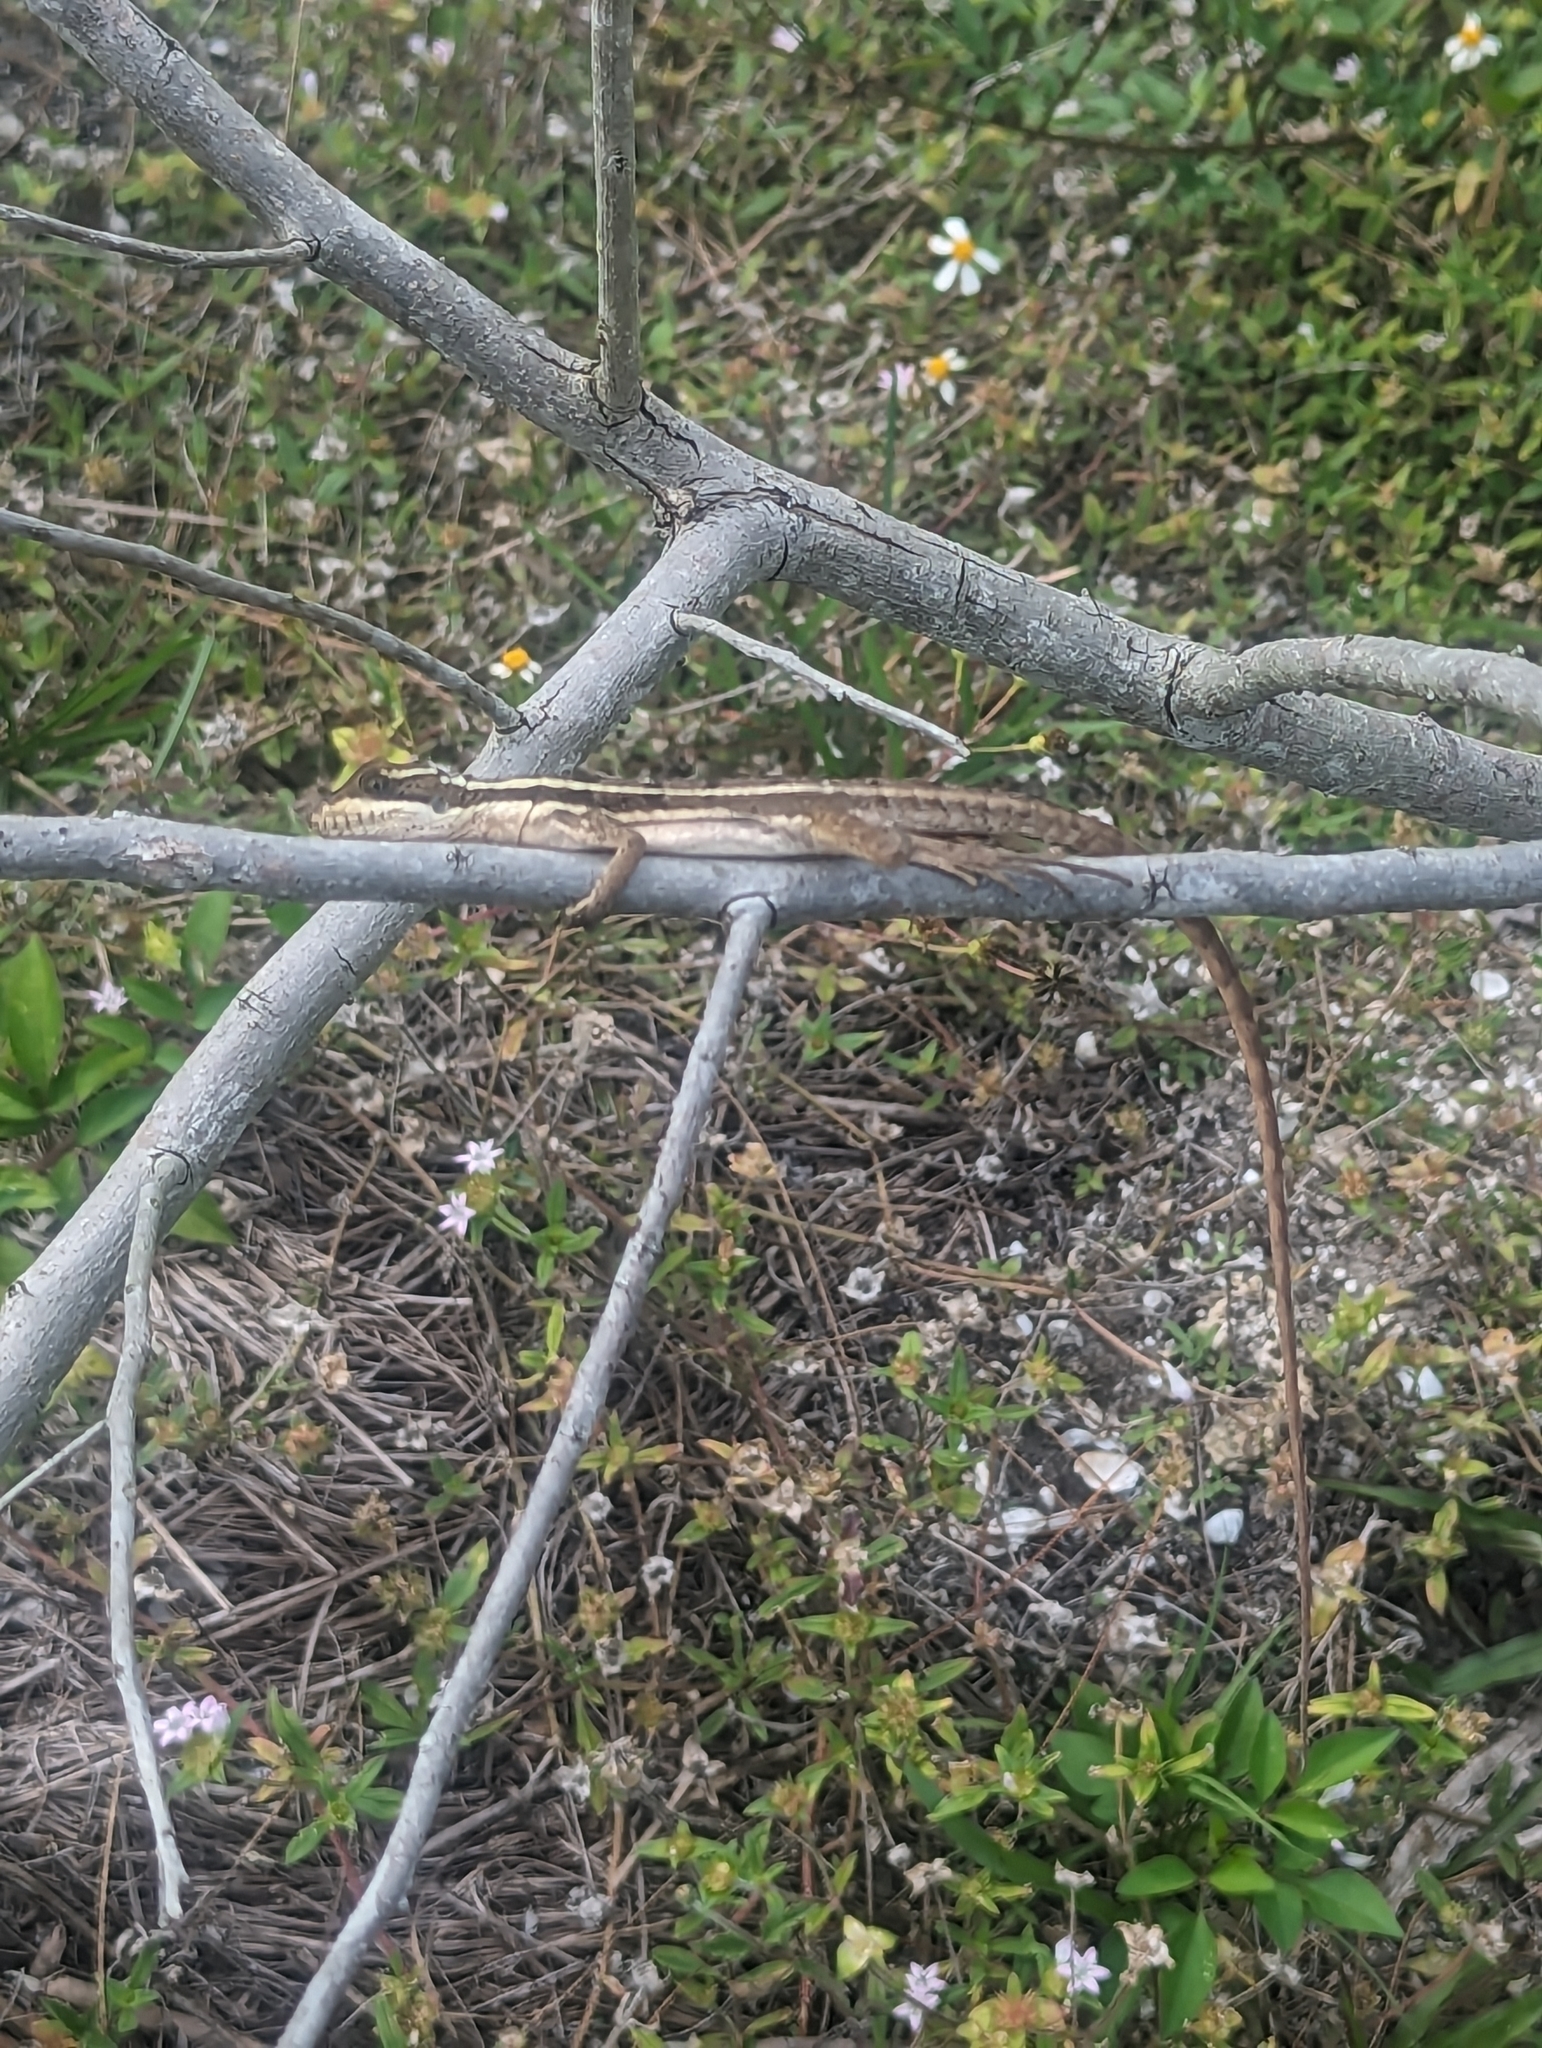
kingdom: Animalia
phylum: Chordata
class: Squamata
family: Corytophanidae
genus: Basiliscus
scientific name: Basiliscus vittatus
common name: Brown basilisk
